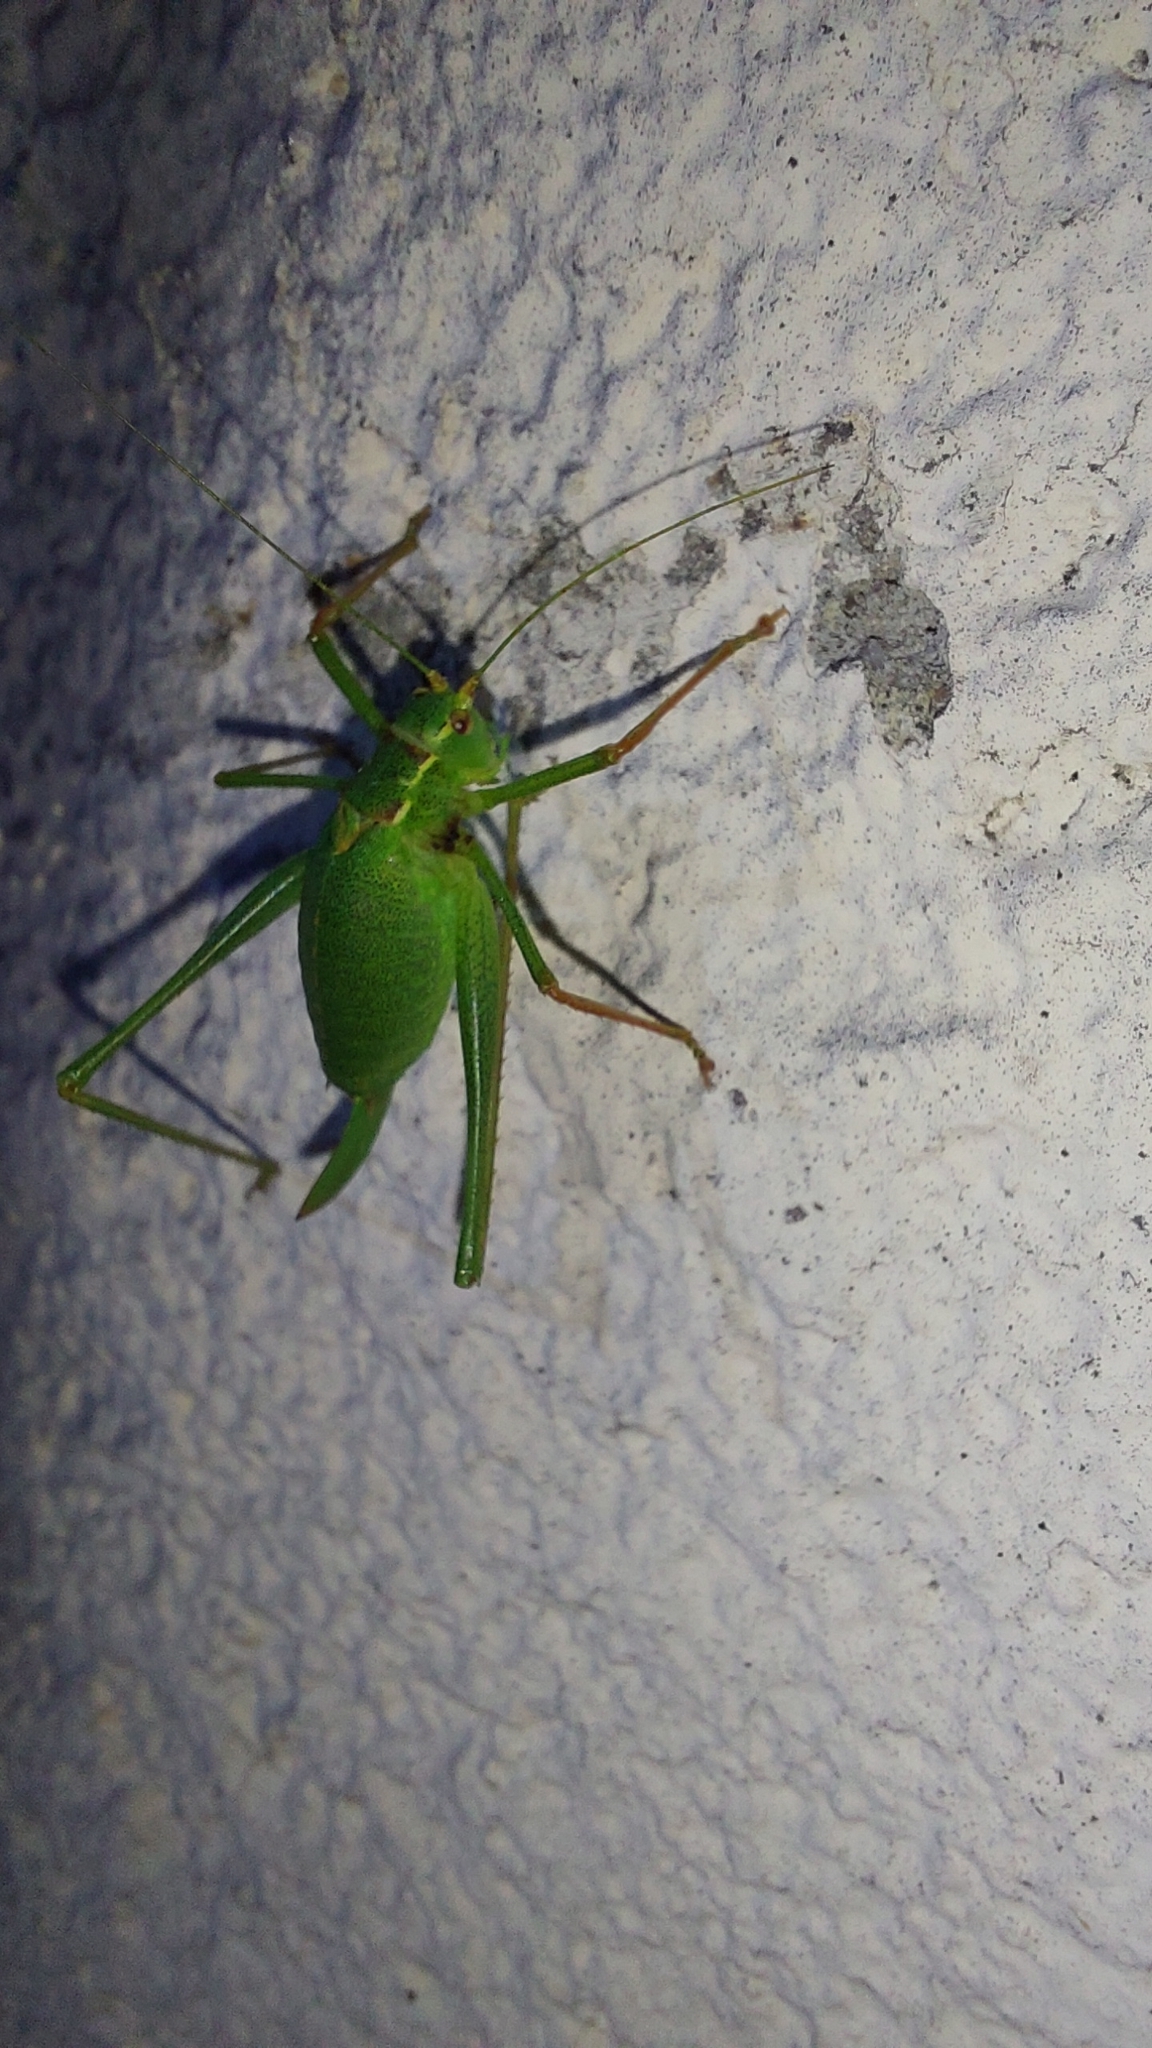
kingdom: Animalia
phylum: Arthropoda
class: Insecta
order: Orthoptera
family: Tettigoniidae
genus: Leptophyes
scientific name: Leptophyes punctatissima
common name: Speckled bush-cricket
